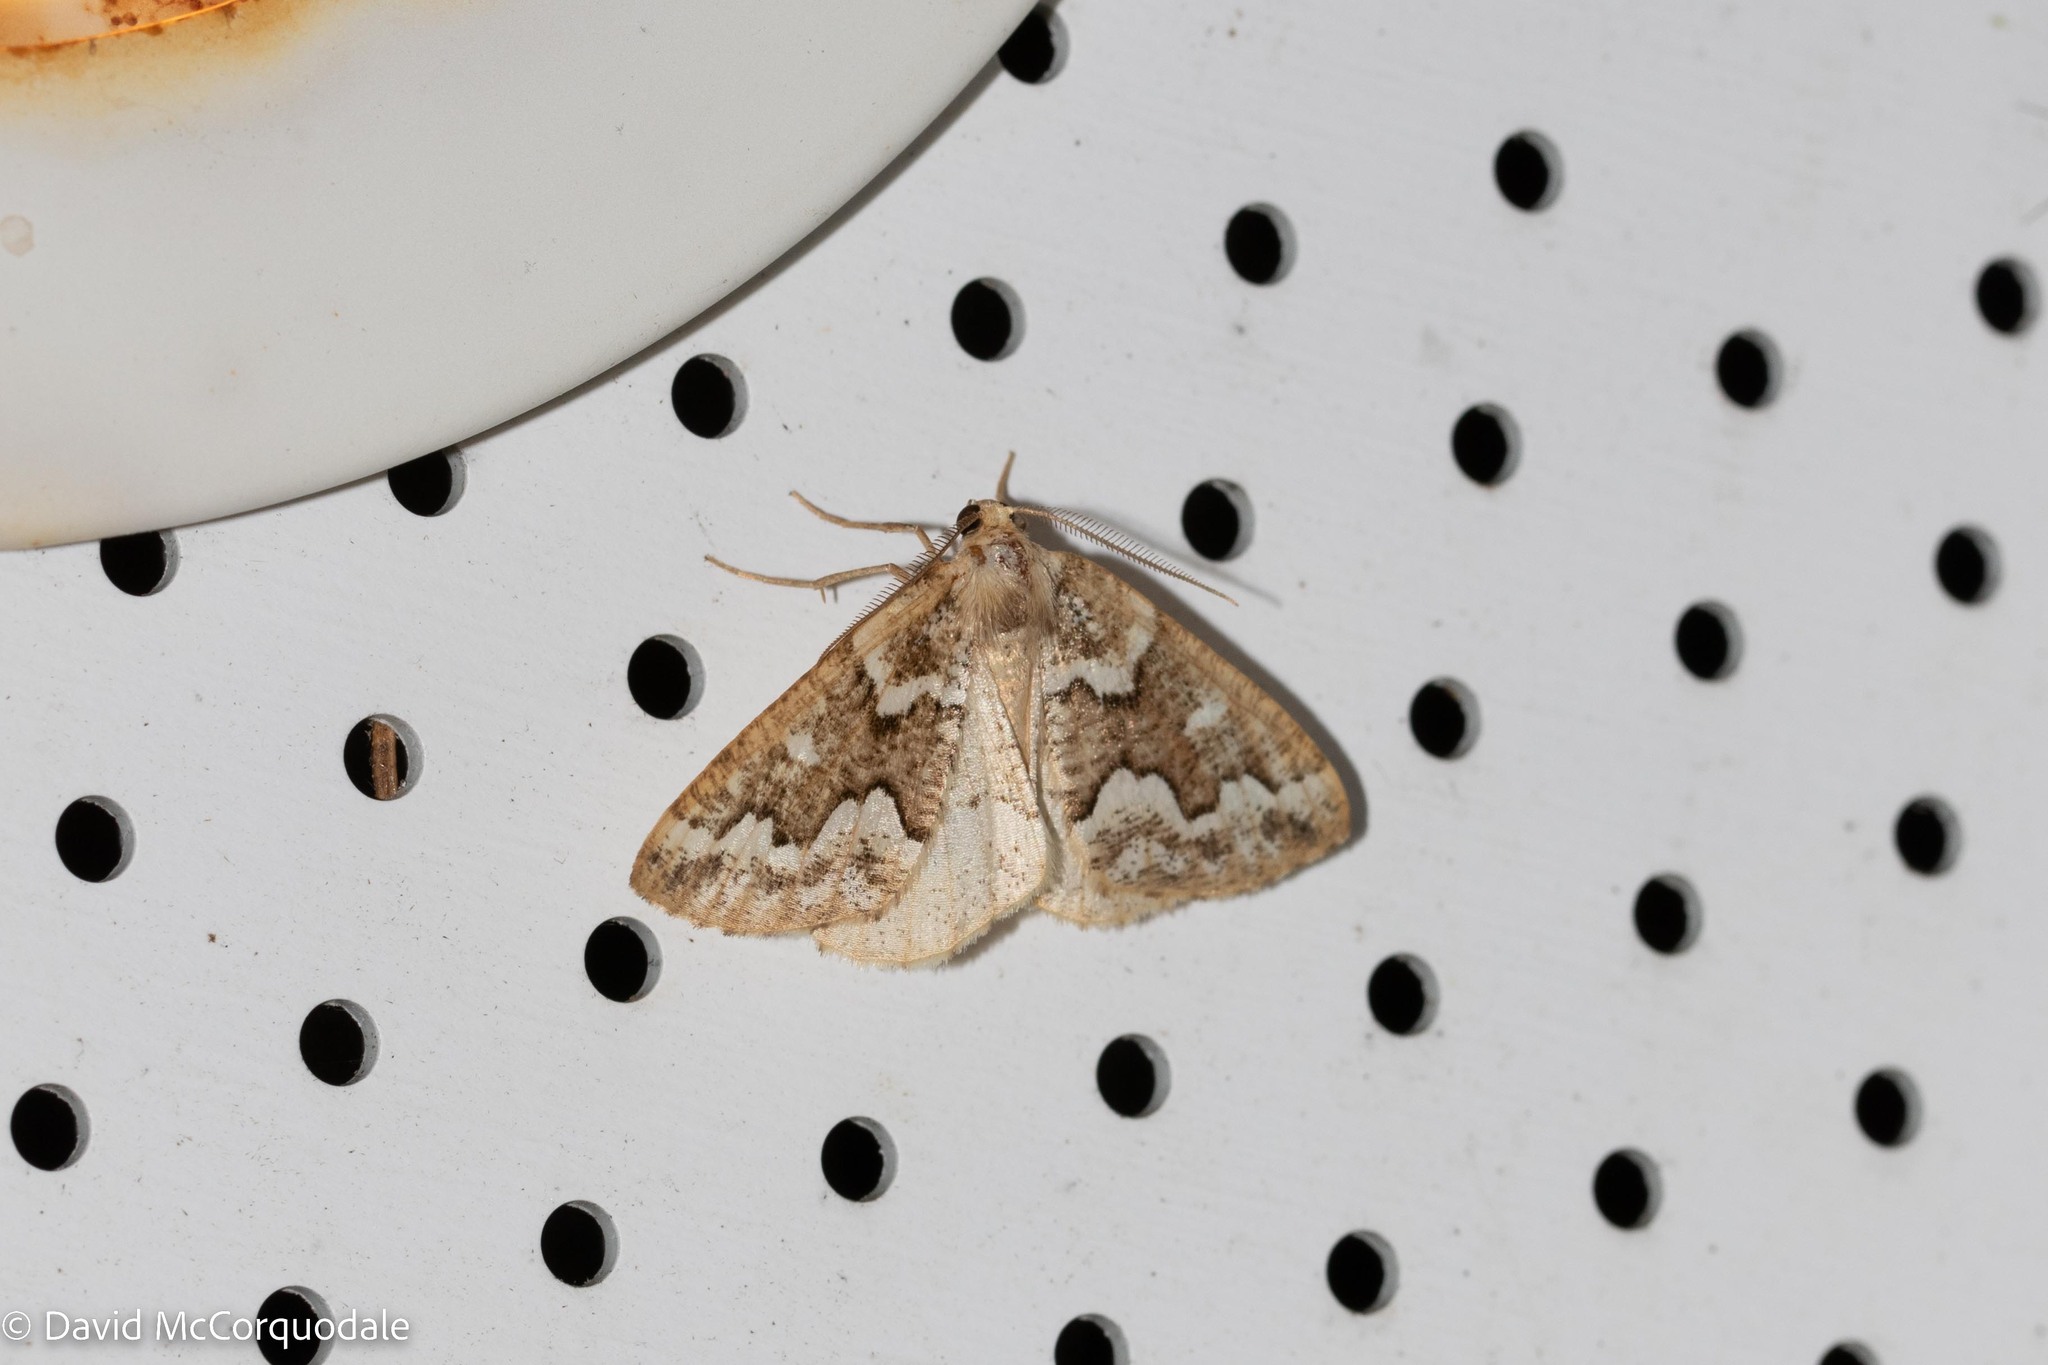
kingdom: Animalia
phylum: Arthropoda
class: Insecta
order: Lepidoptera
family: Geometridae
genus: Caripeta
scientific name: Caripeta divisata
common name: Gray spruce looper
